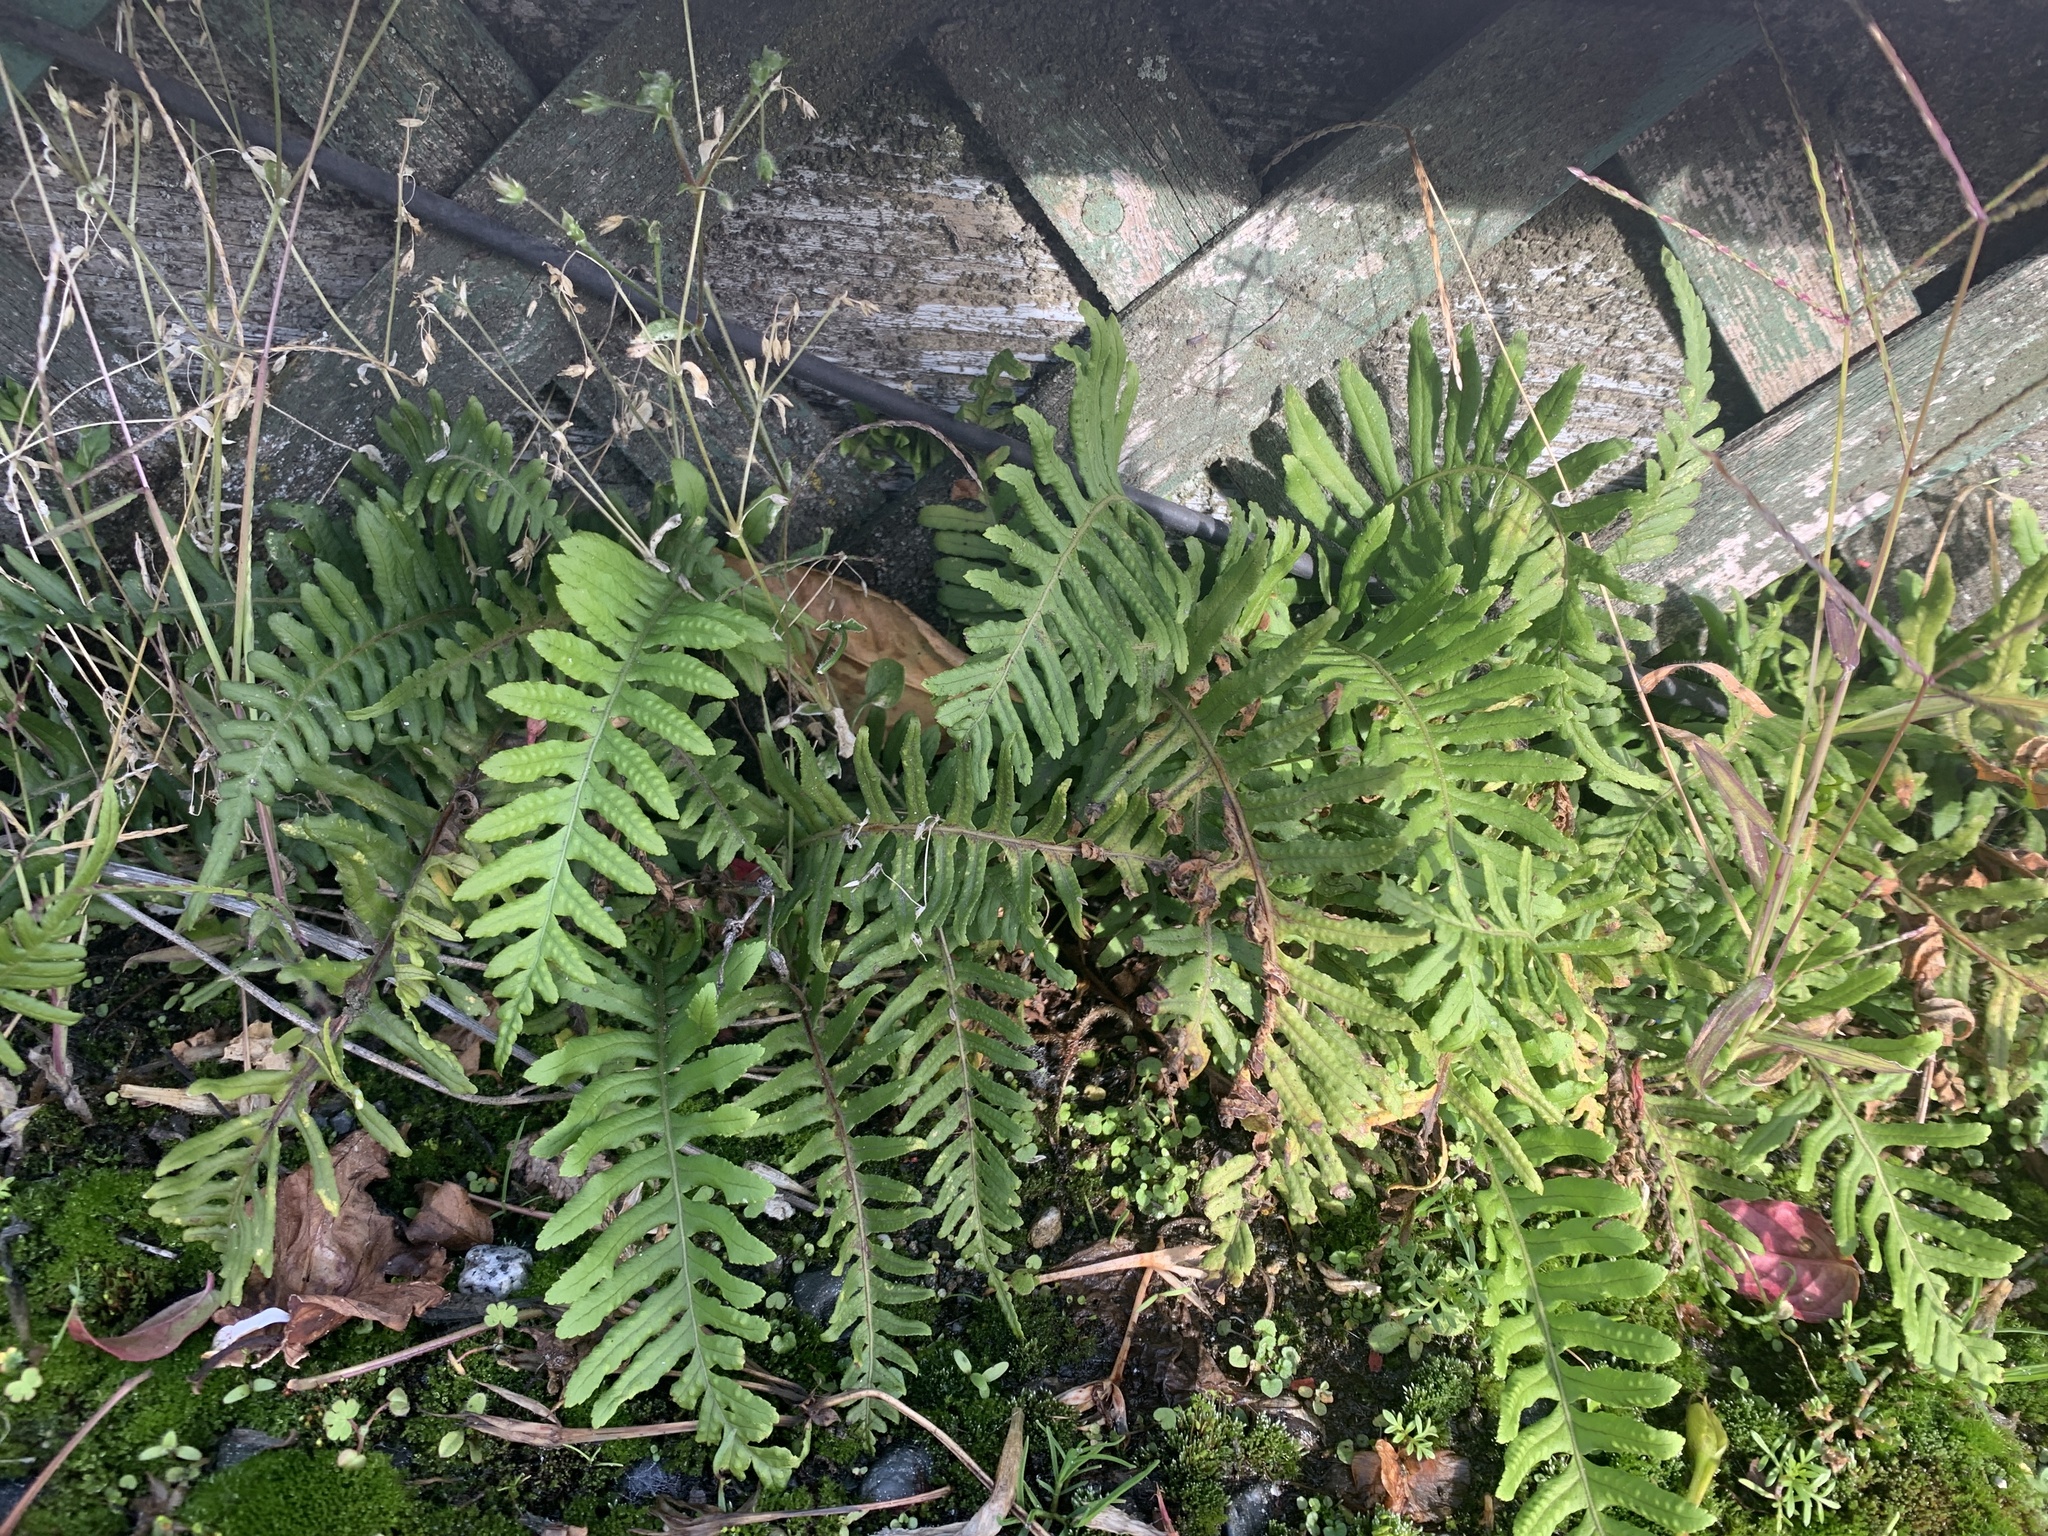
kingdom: Plantae
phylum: Tracheophyta
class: Polypodiopsida
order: Polypodiales
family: Polypodiaceae
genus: Polypodium
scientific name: Polypodium glycyrrhiza
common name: Licorice fern
